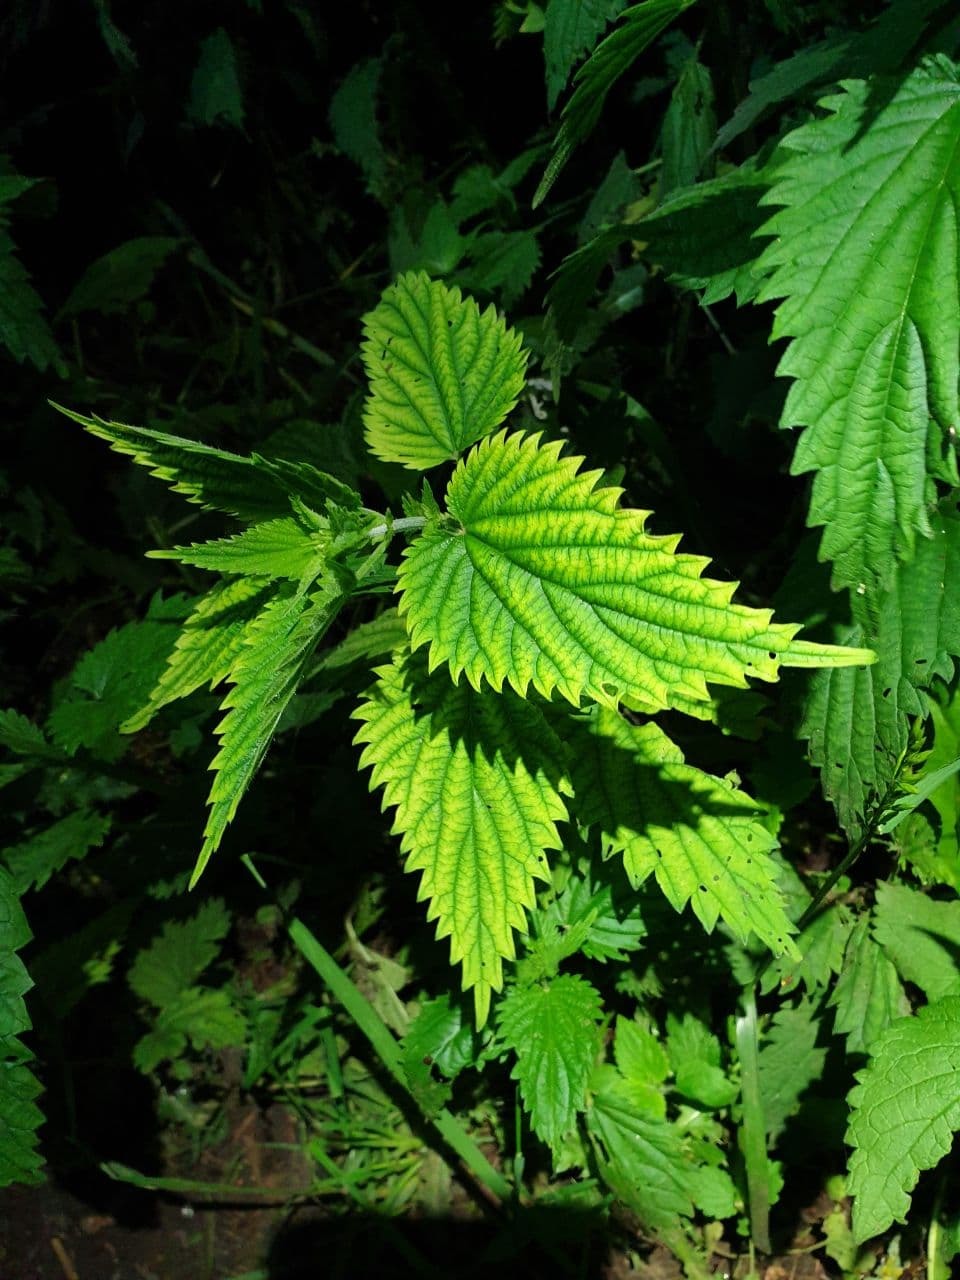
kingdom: Plantae
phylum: Tracheophyta
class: Magnoliopsida
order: Rosales
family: Urticaceae
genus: Urtica
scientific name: Urtica dioica
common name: Common nettle
